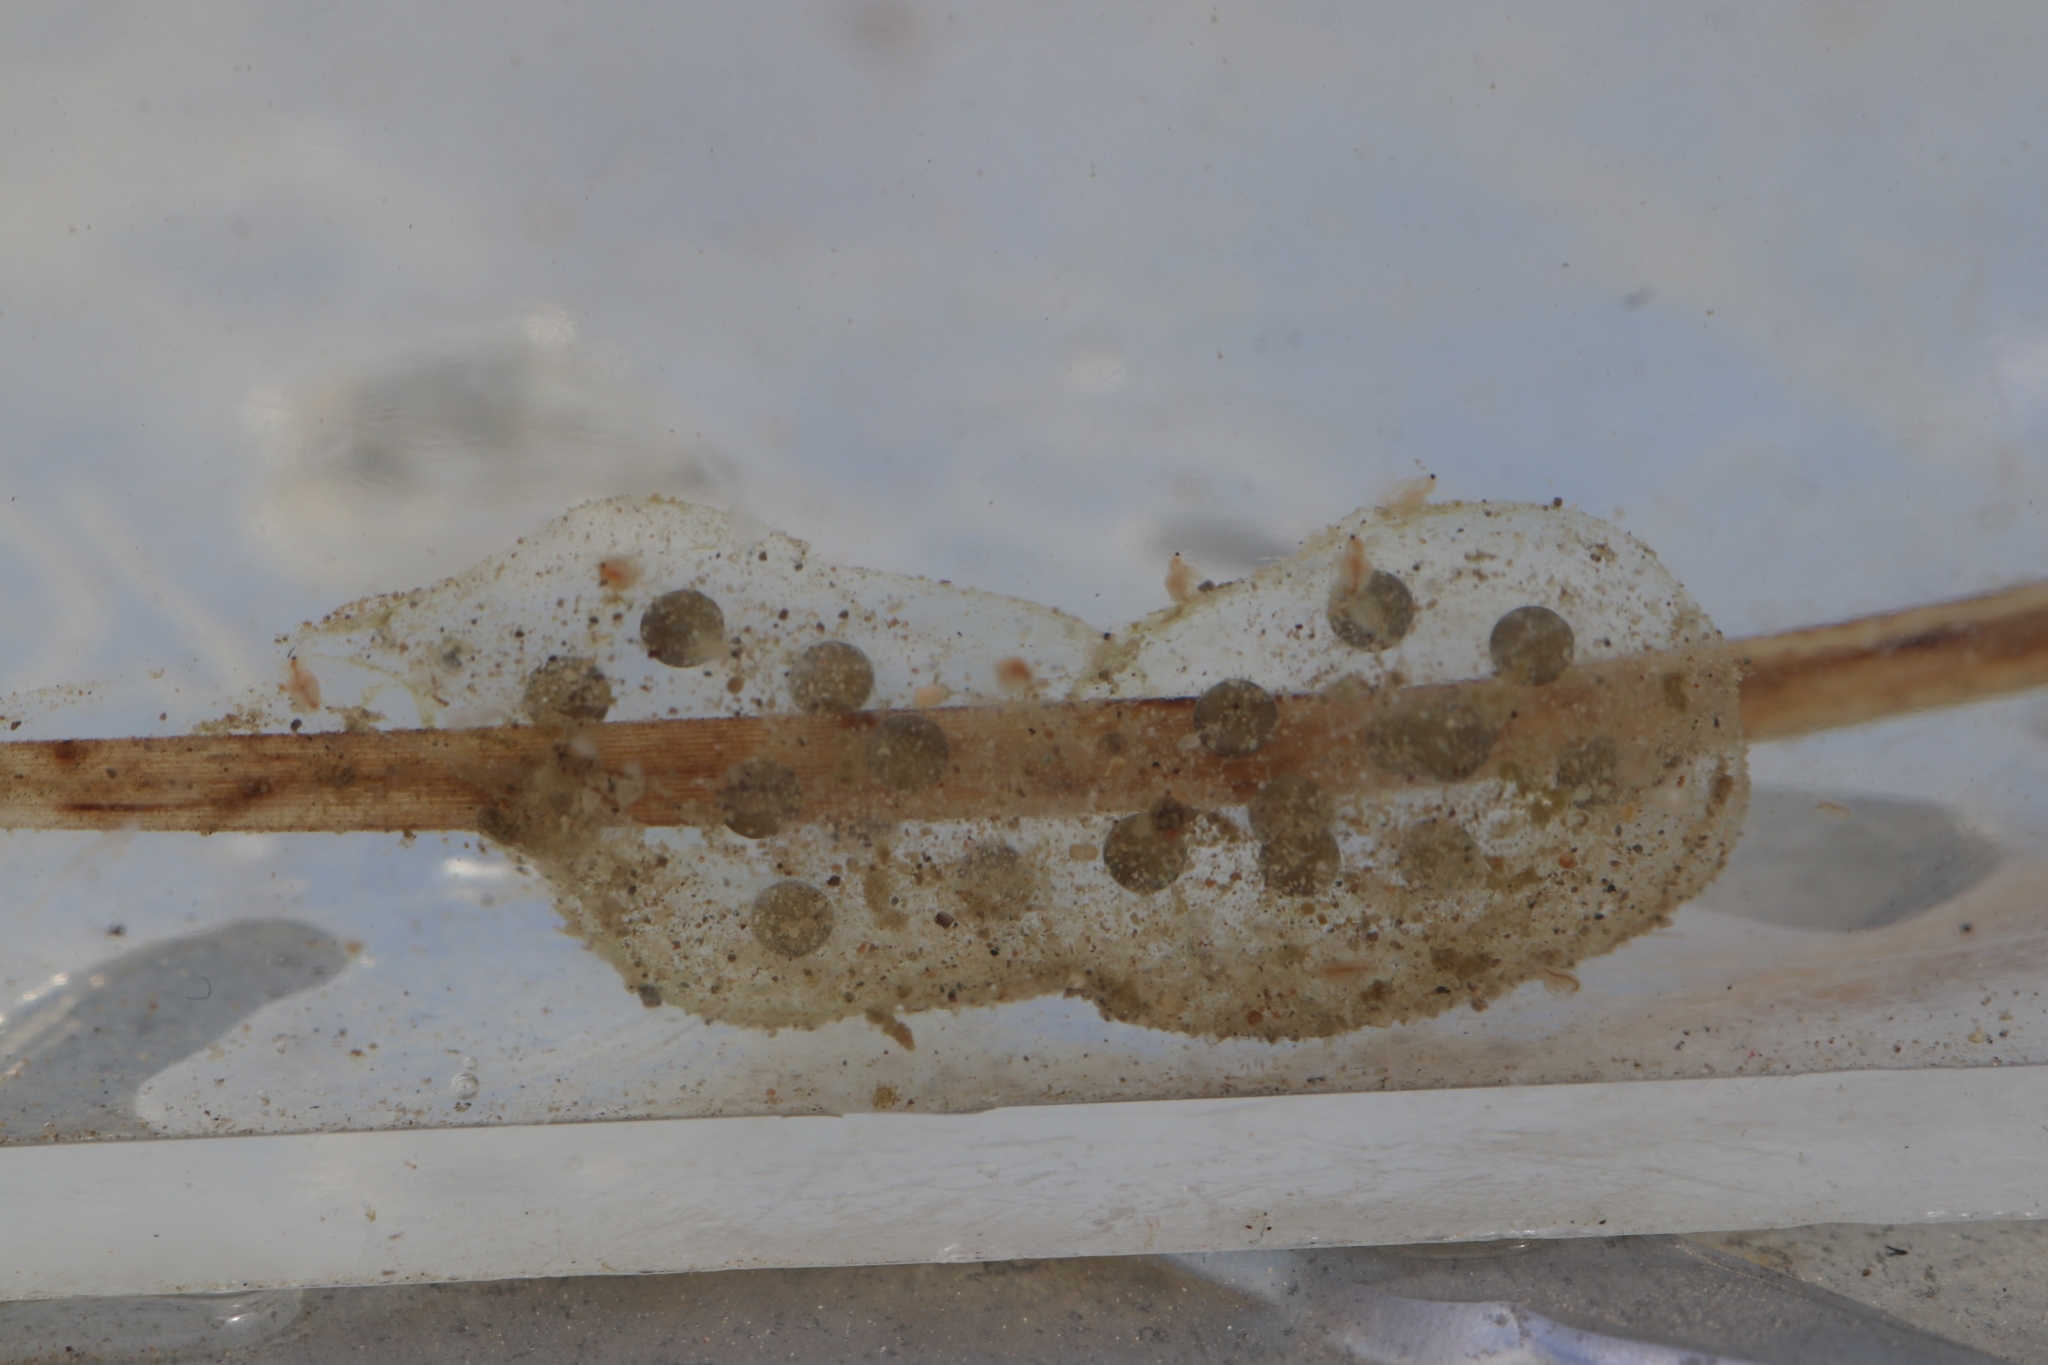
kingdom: Animalia
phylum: Chordata
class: Amphibia
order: Anura
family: Hylidae
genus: Pseudacris
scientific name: Pseudacris regilla
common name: Pacific chorus frog
